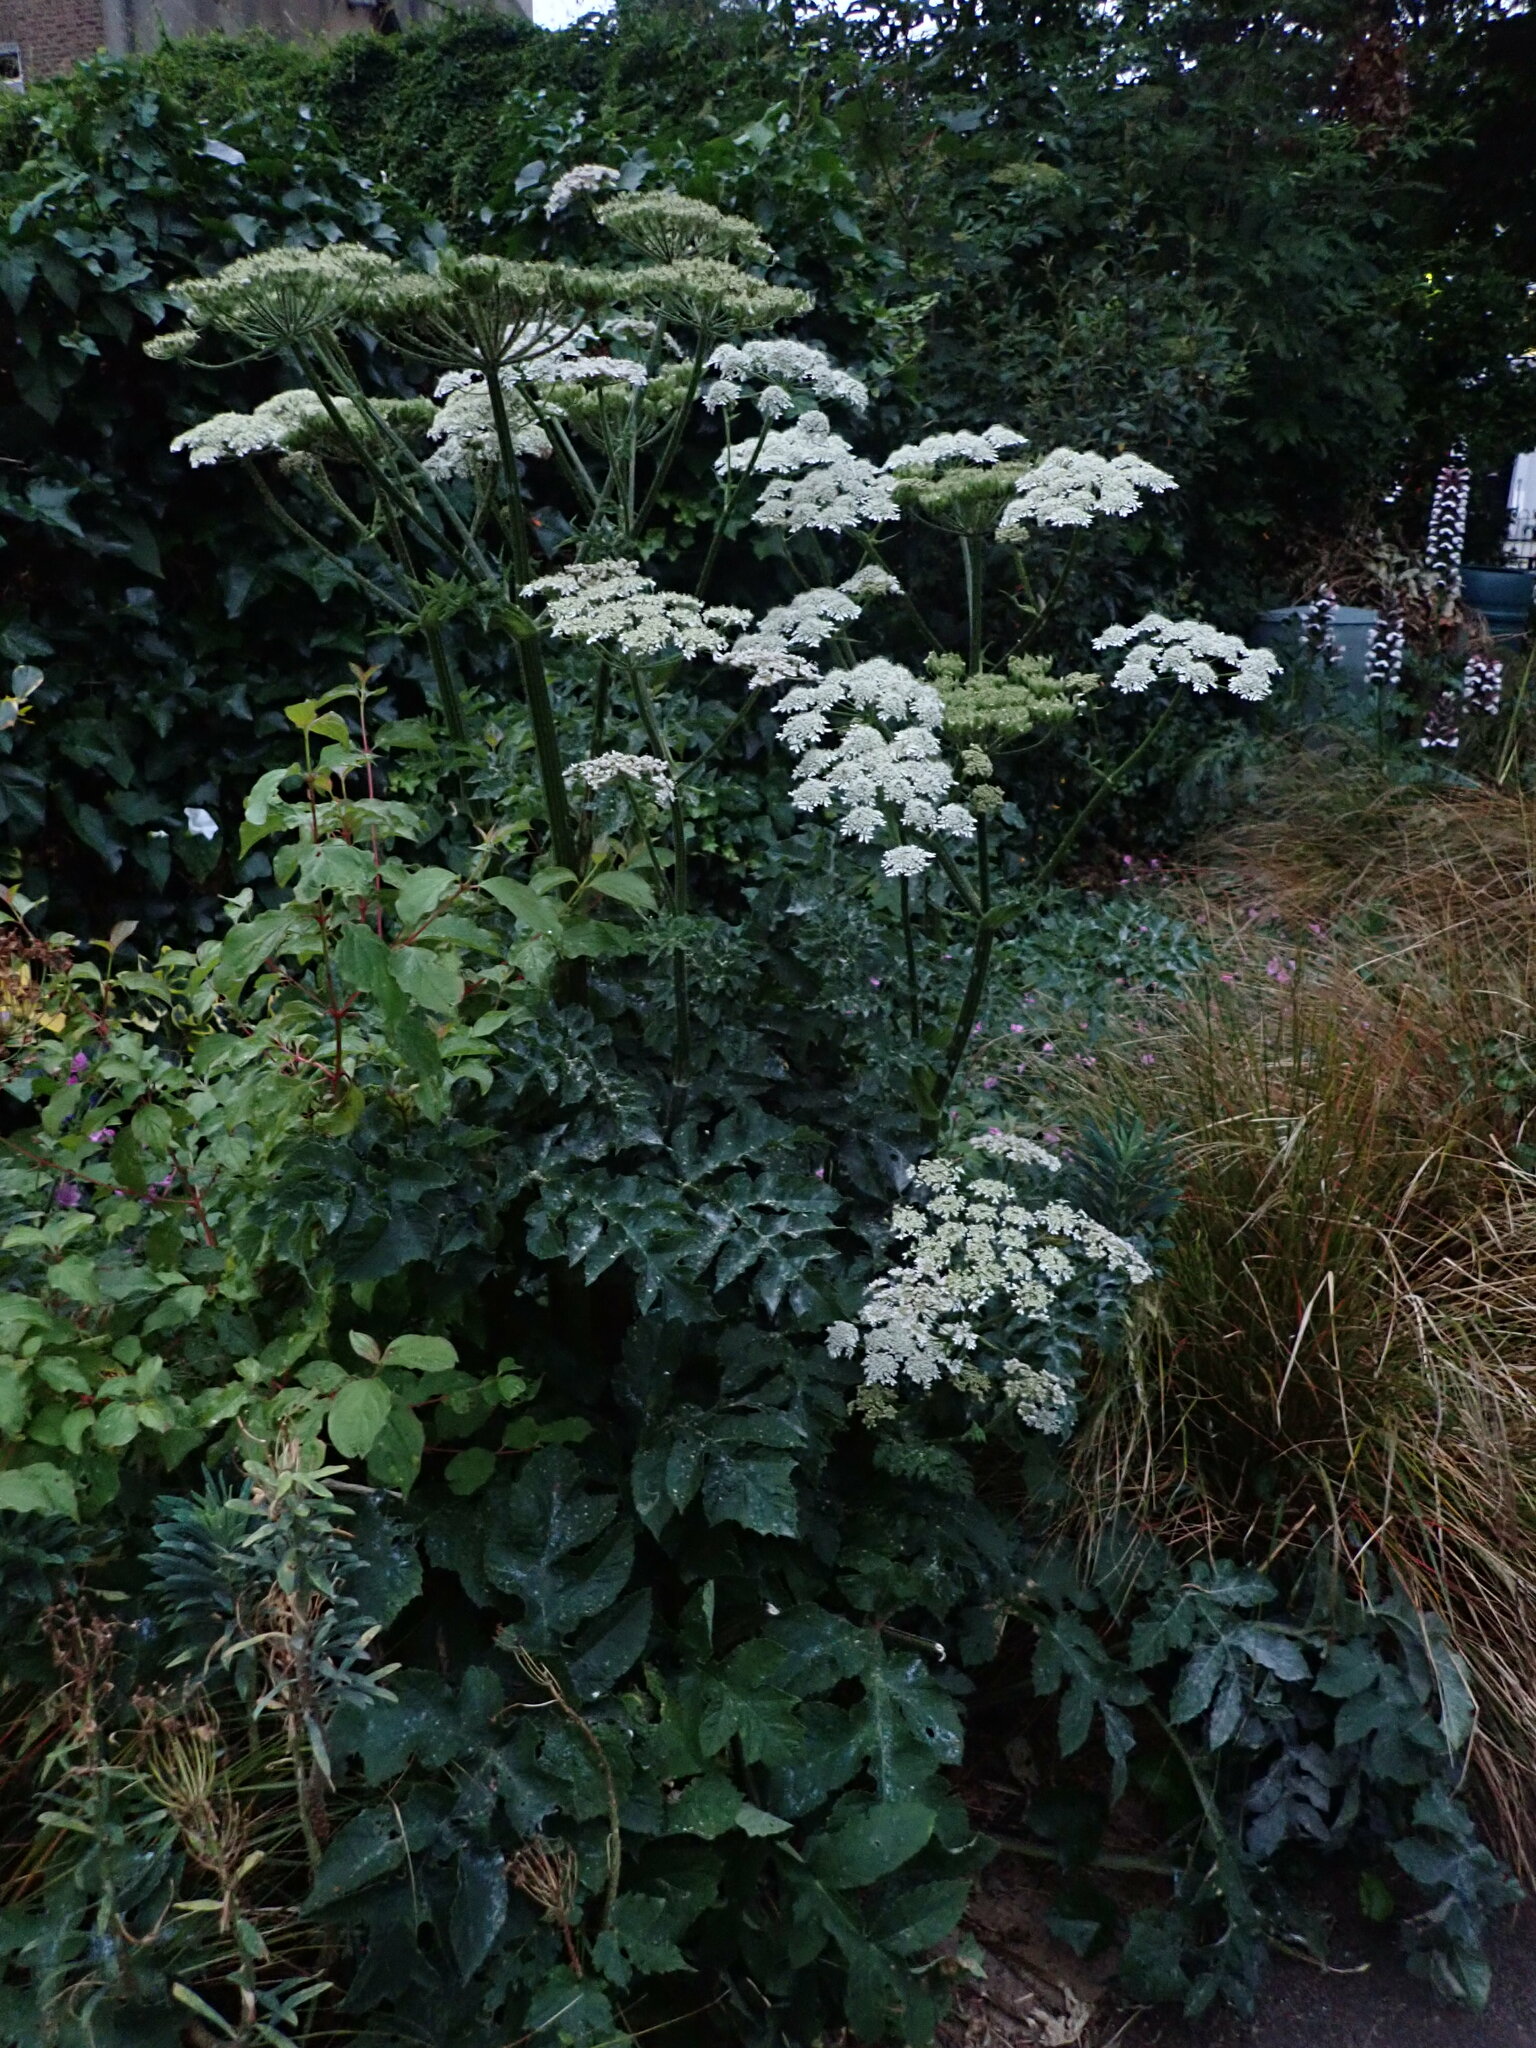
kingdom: Plantae
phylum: Tracheophyta
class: Magnoliopsida
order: Apiales
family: Apiaceae
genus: Heracleum
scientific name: Heracleum sphondylium
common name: Hogweed
